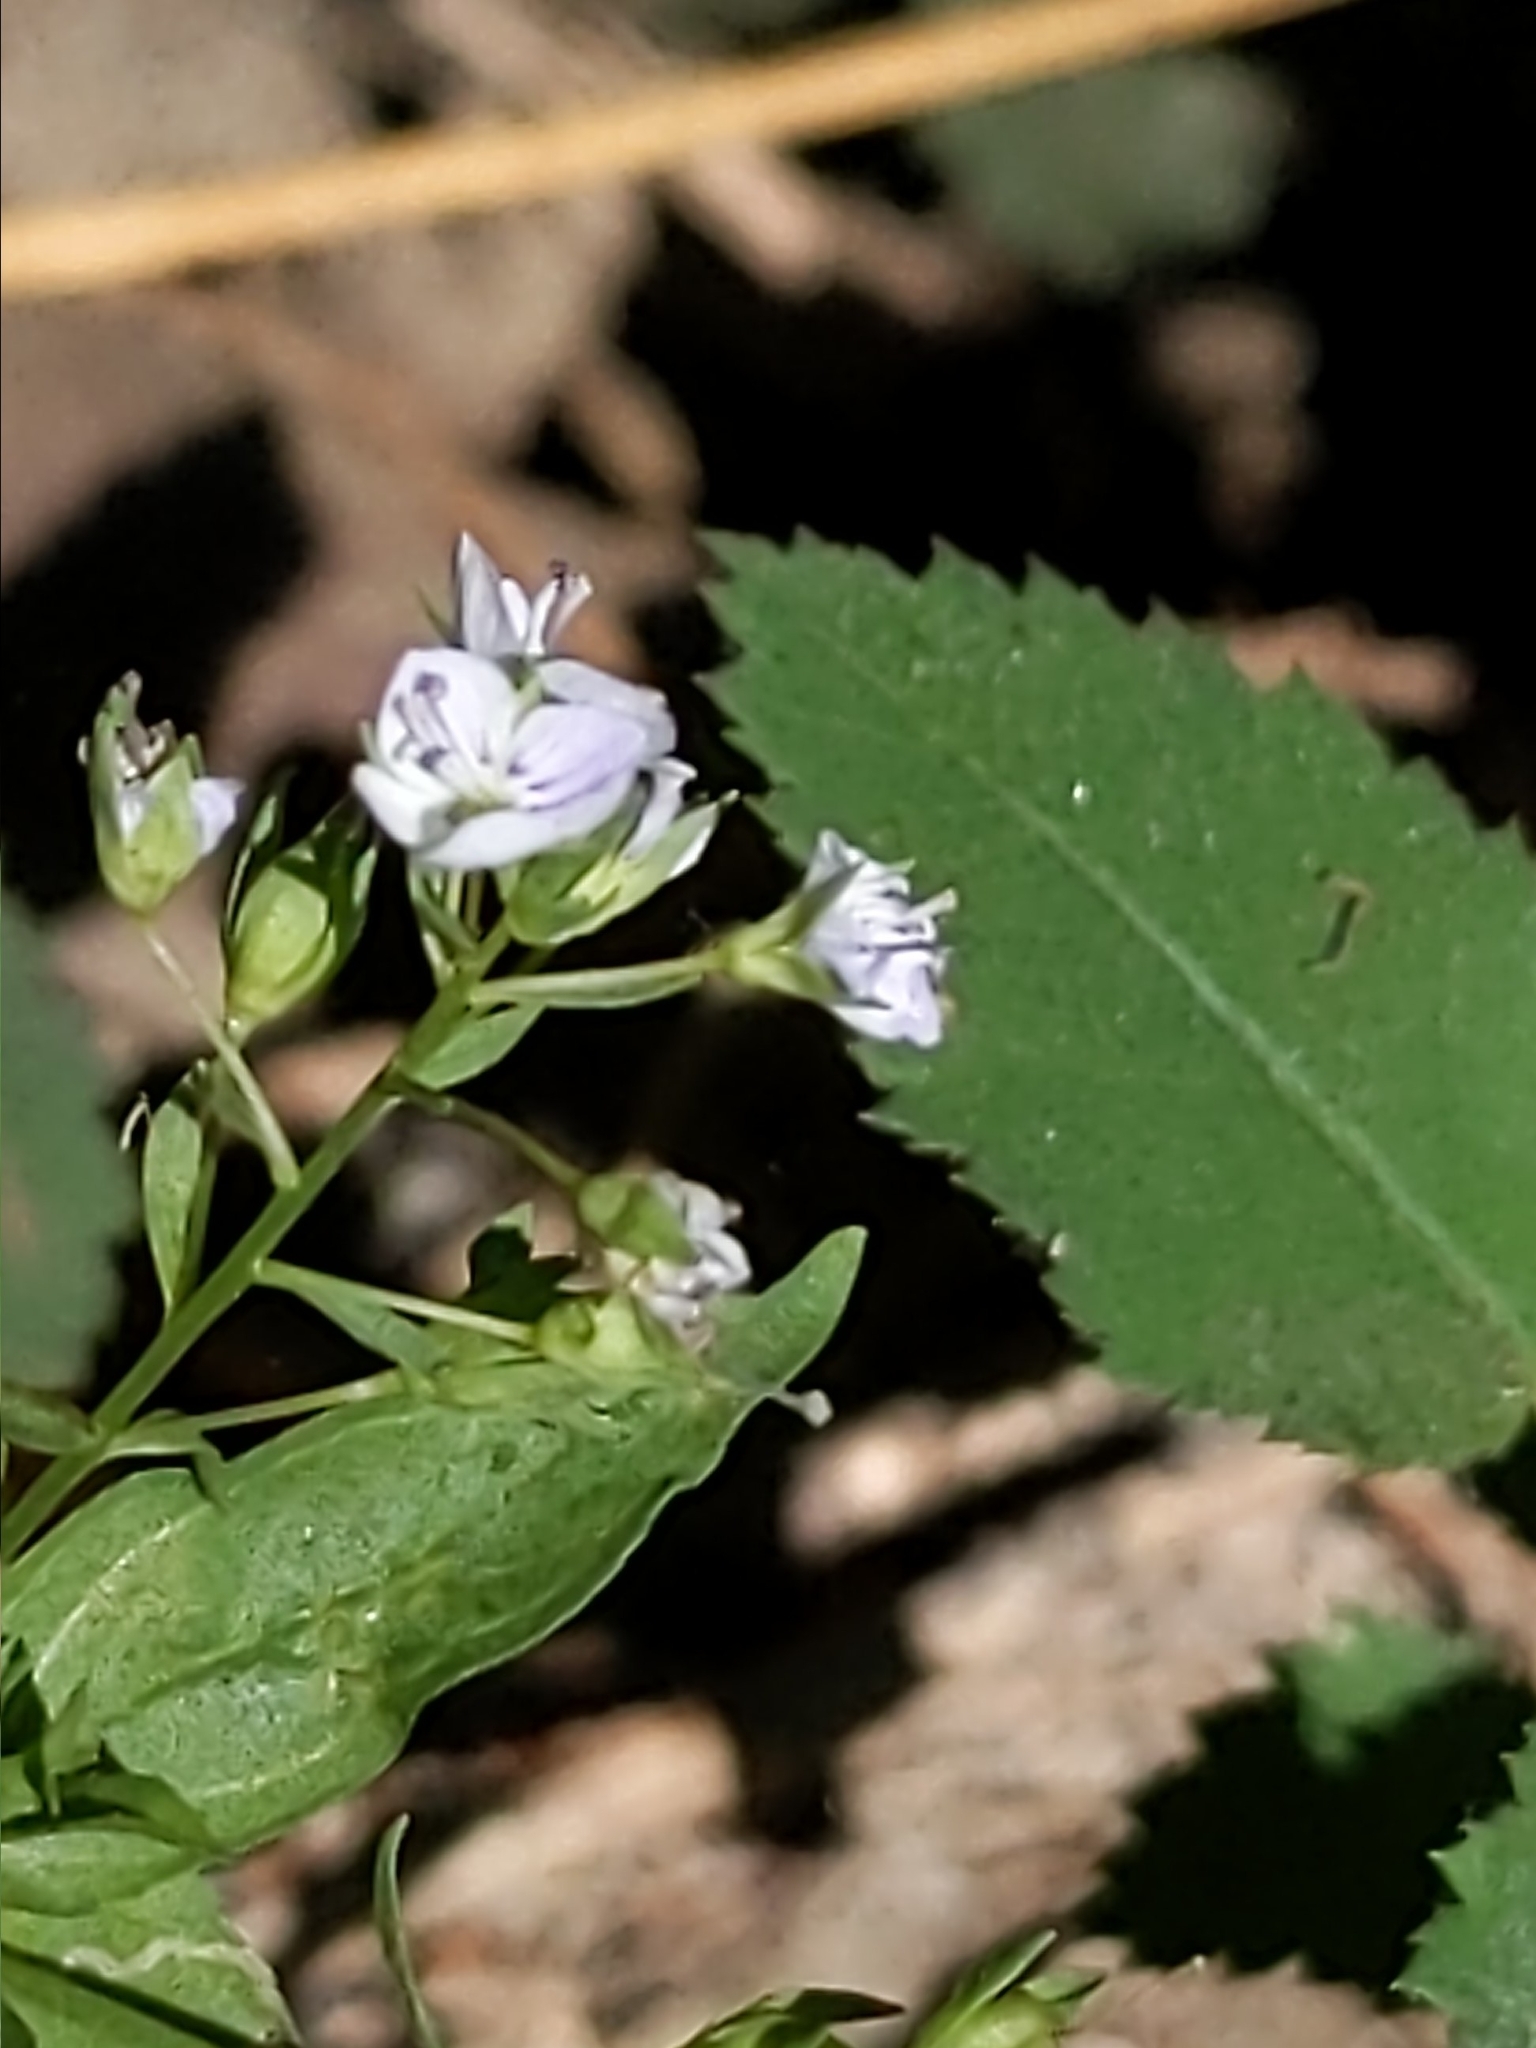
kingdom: Plantae
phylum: Tracheophyta
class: Magnoliopsida
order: Lamiales
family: Plantaginaceae
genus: Veronica
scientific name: Veronica anagallis-aquatica
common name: Water speedwell
